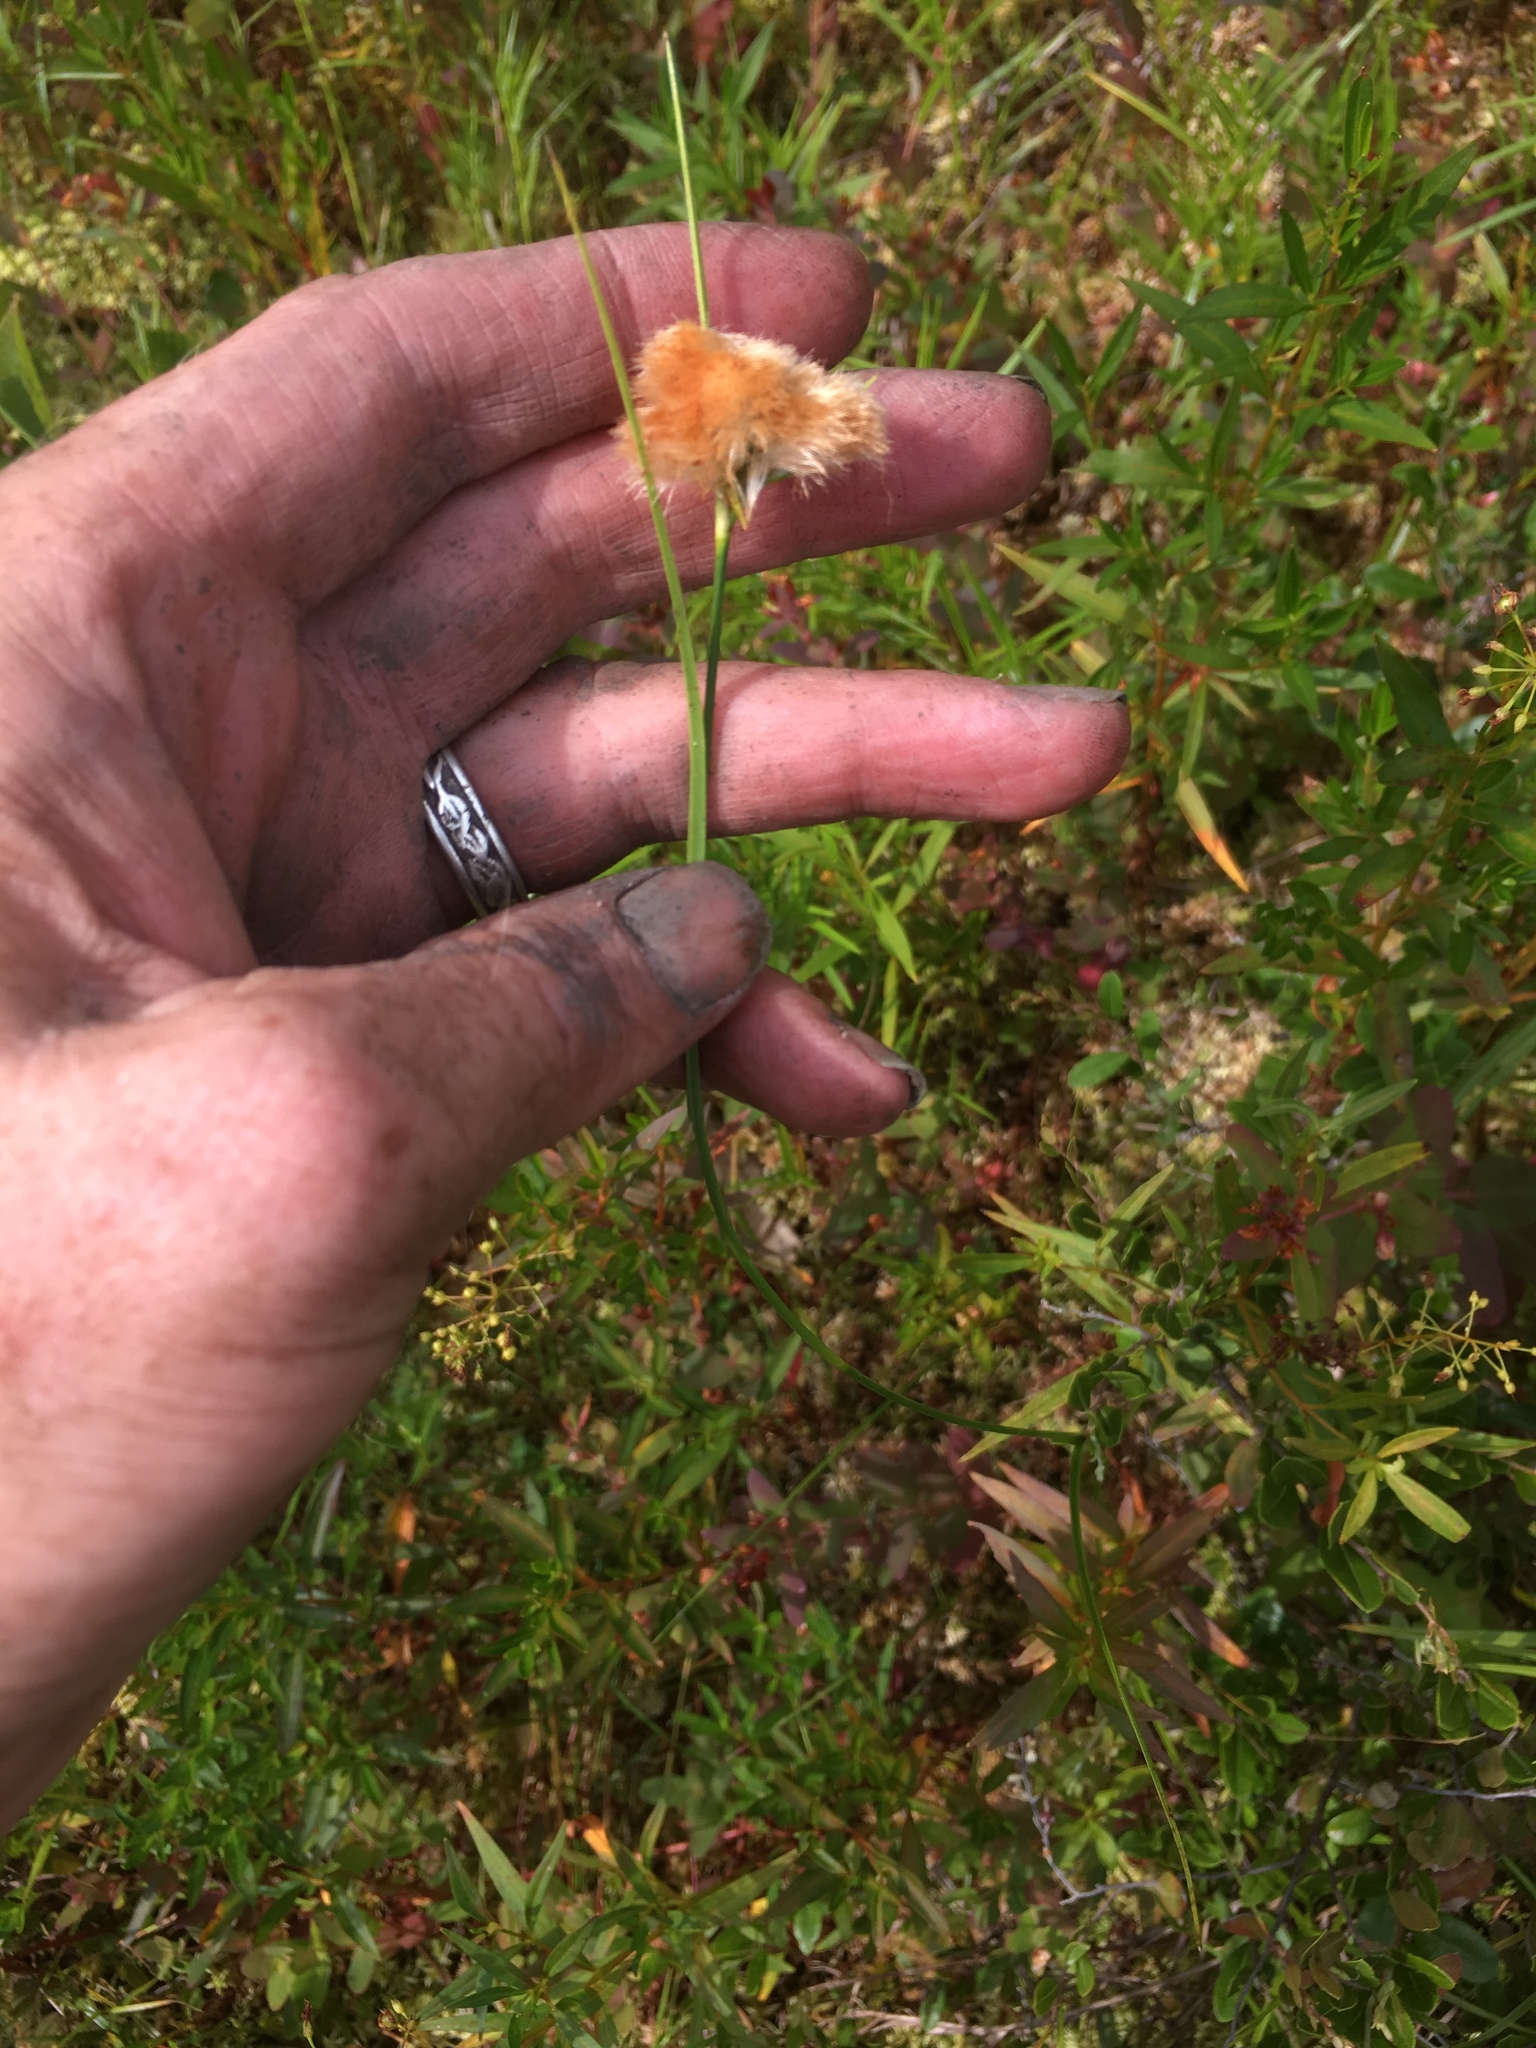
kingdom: Plantae
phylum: Tracheophyta
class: Liliopsida
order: Poales
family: Cyperaceae
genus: Eriophorum
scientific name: Eriophorum virginicum
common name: Tawny cottongrass
